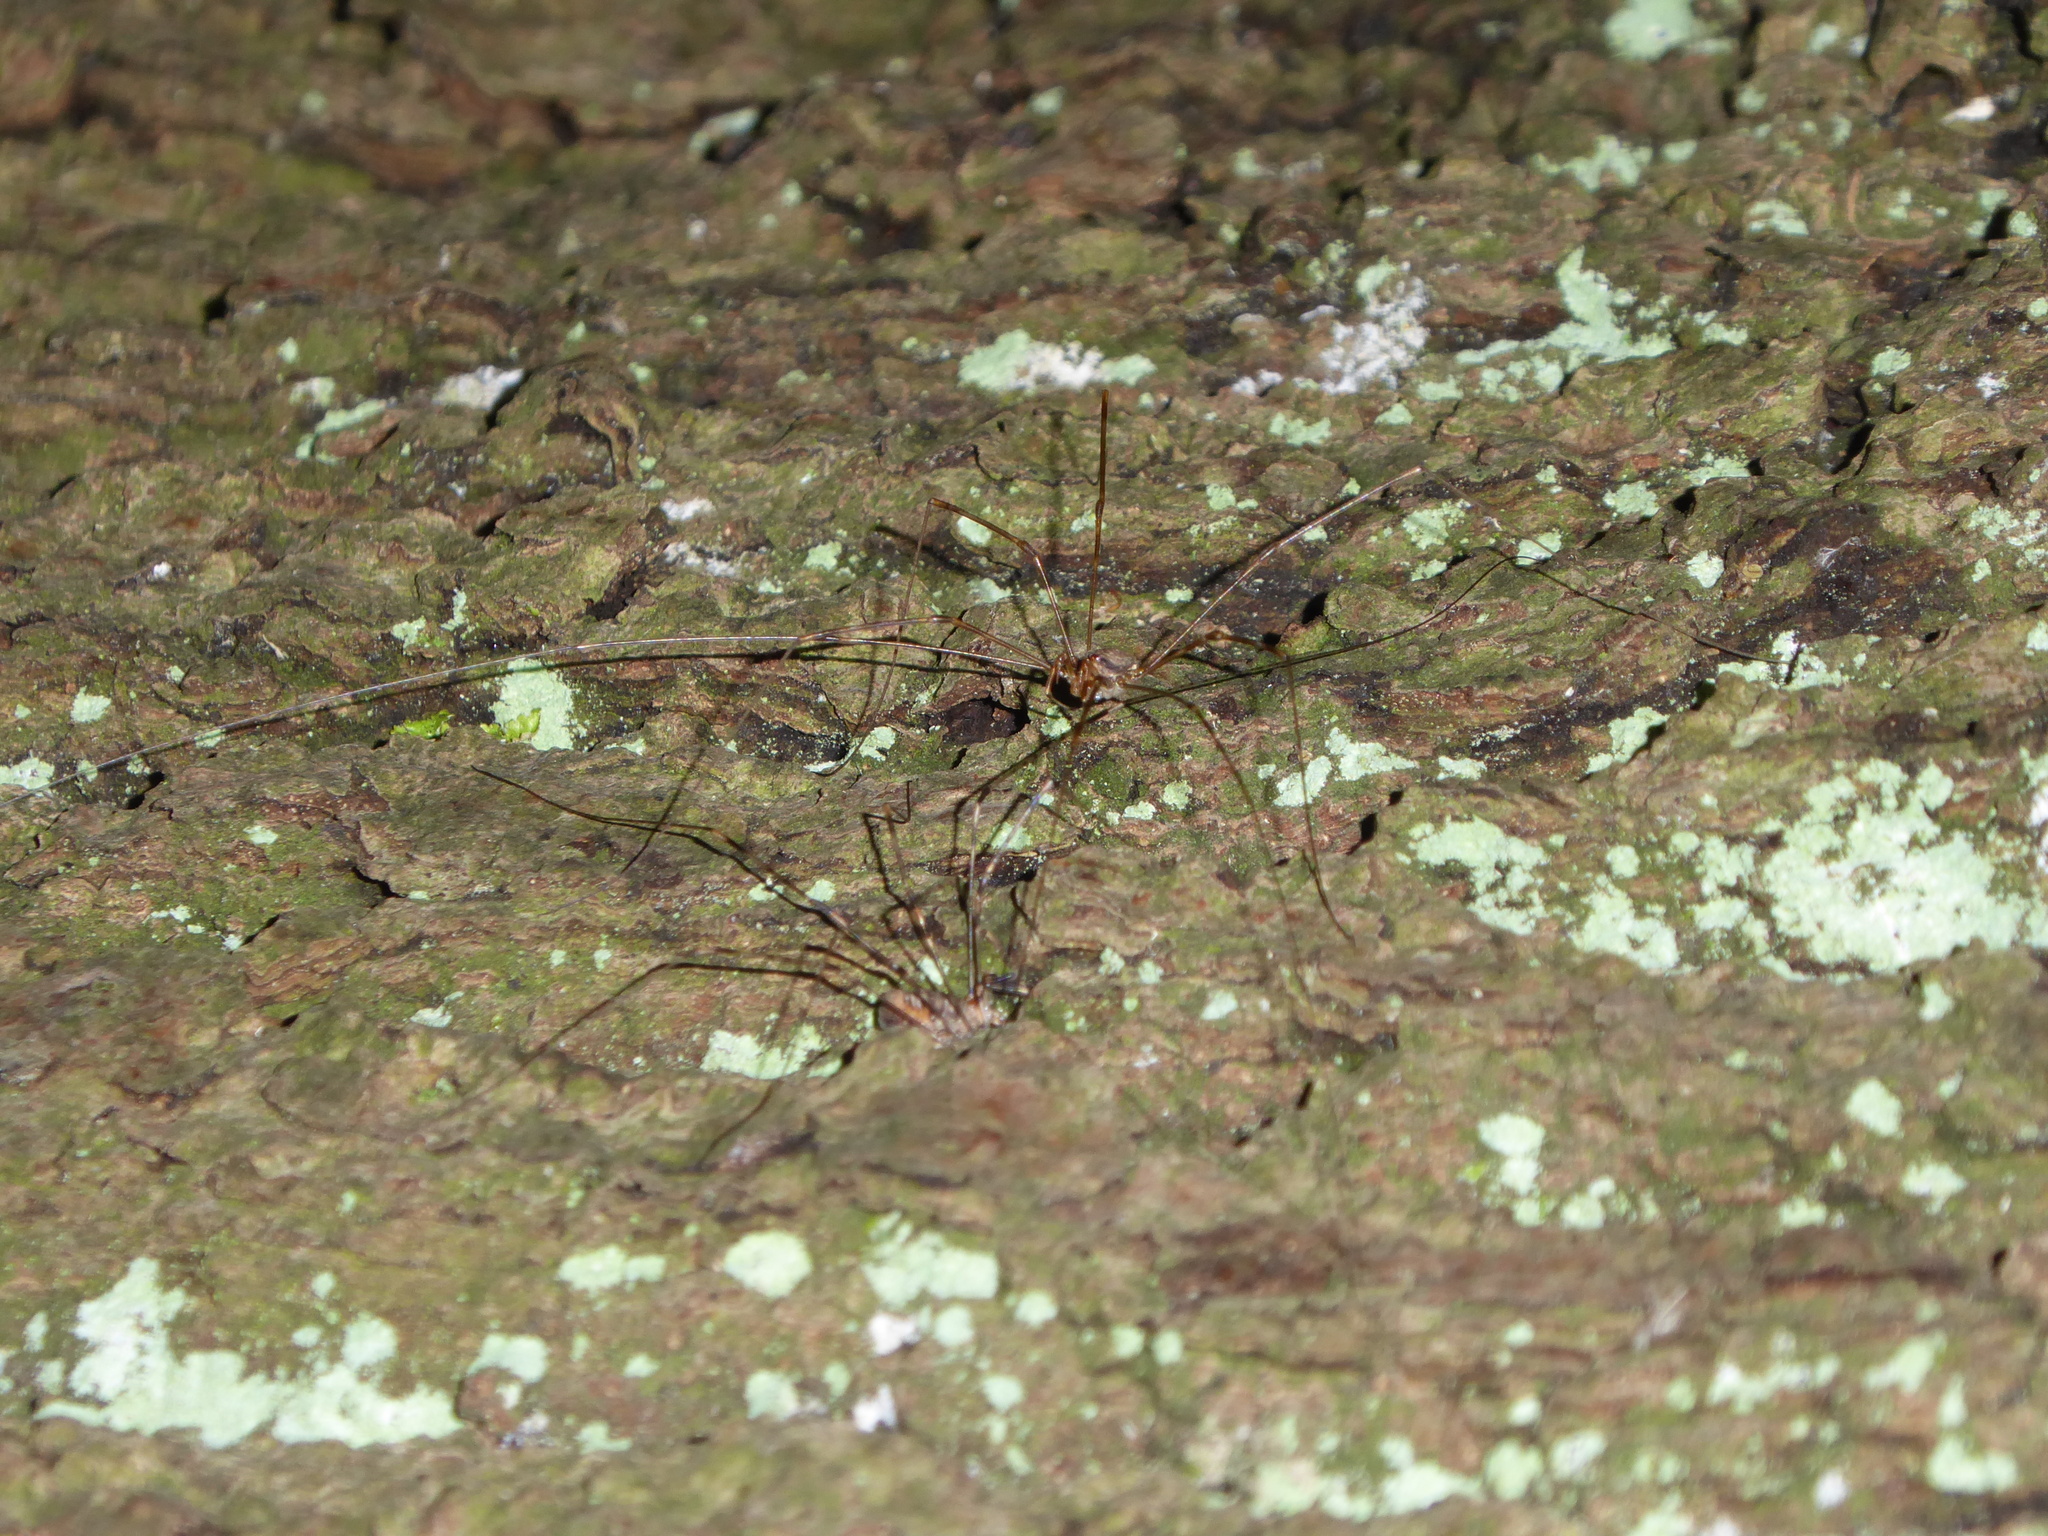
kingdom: Animalia
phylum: Arthropoda
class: Arachnida
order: Opiliones
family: Phalangiidae
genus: Dicranopalpus
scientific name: Dicranopalpus
